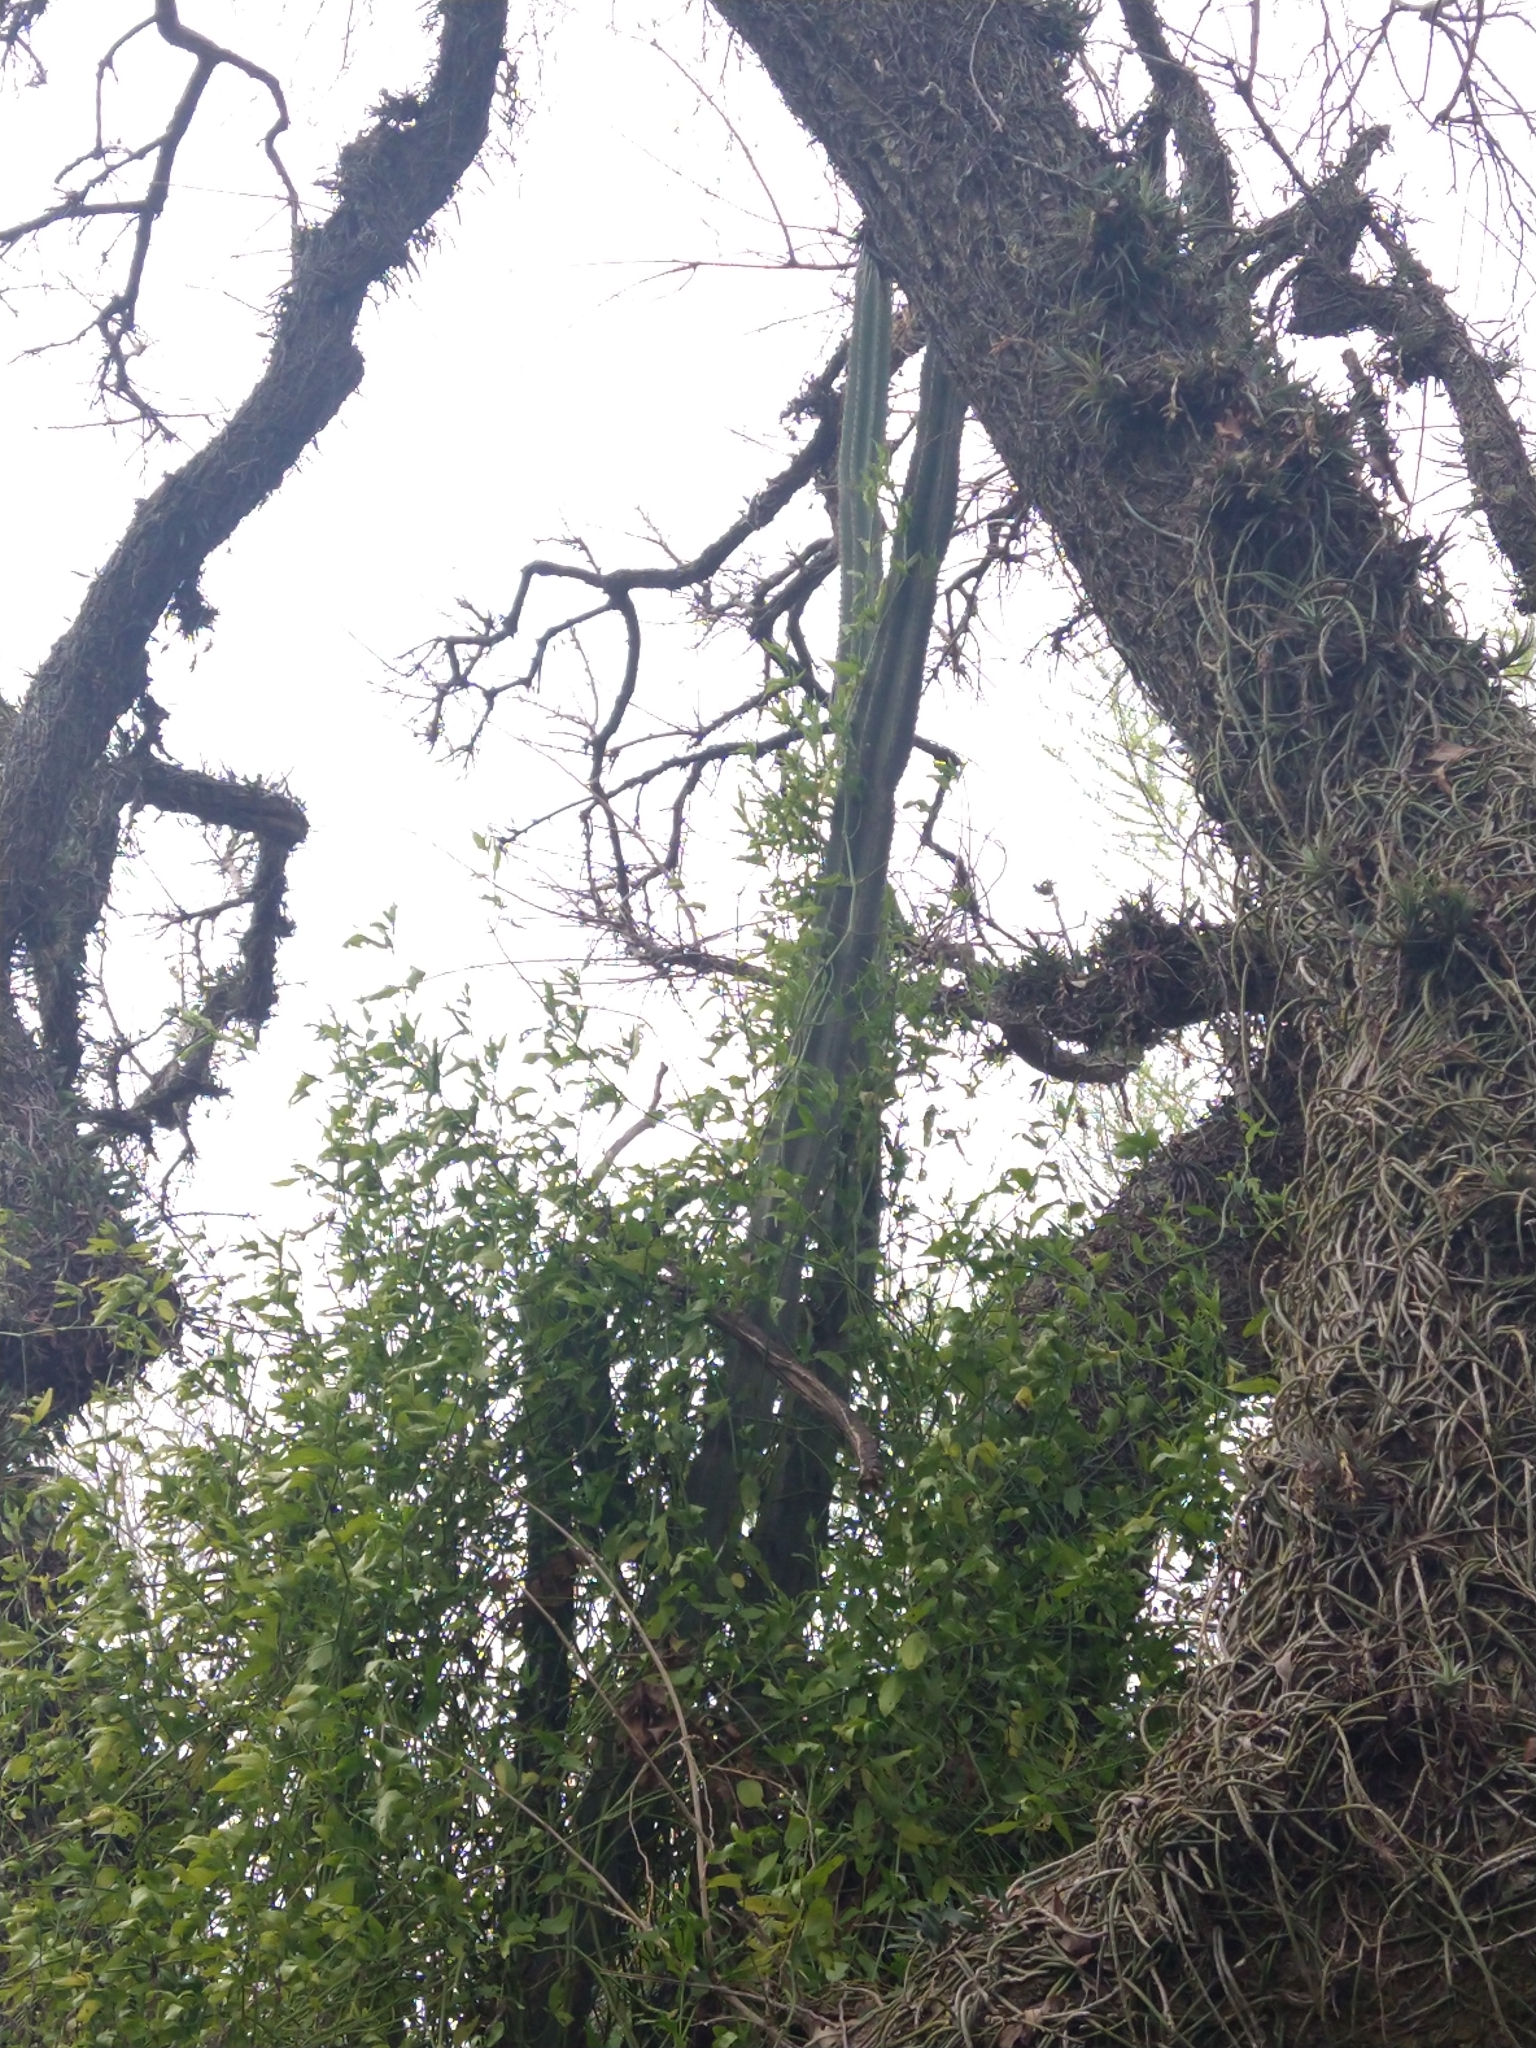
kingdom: Plantae
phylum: Tracheophyta
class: Magnoliopsida
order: Caryophyllales
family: Cactaceae
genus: Cereus
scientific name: Cereus hildmannianus
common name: Hedge cactus
